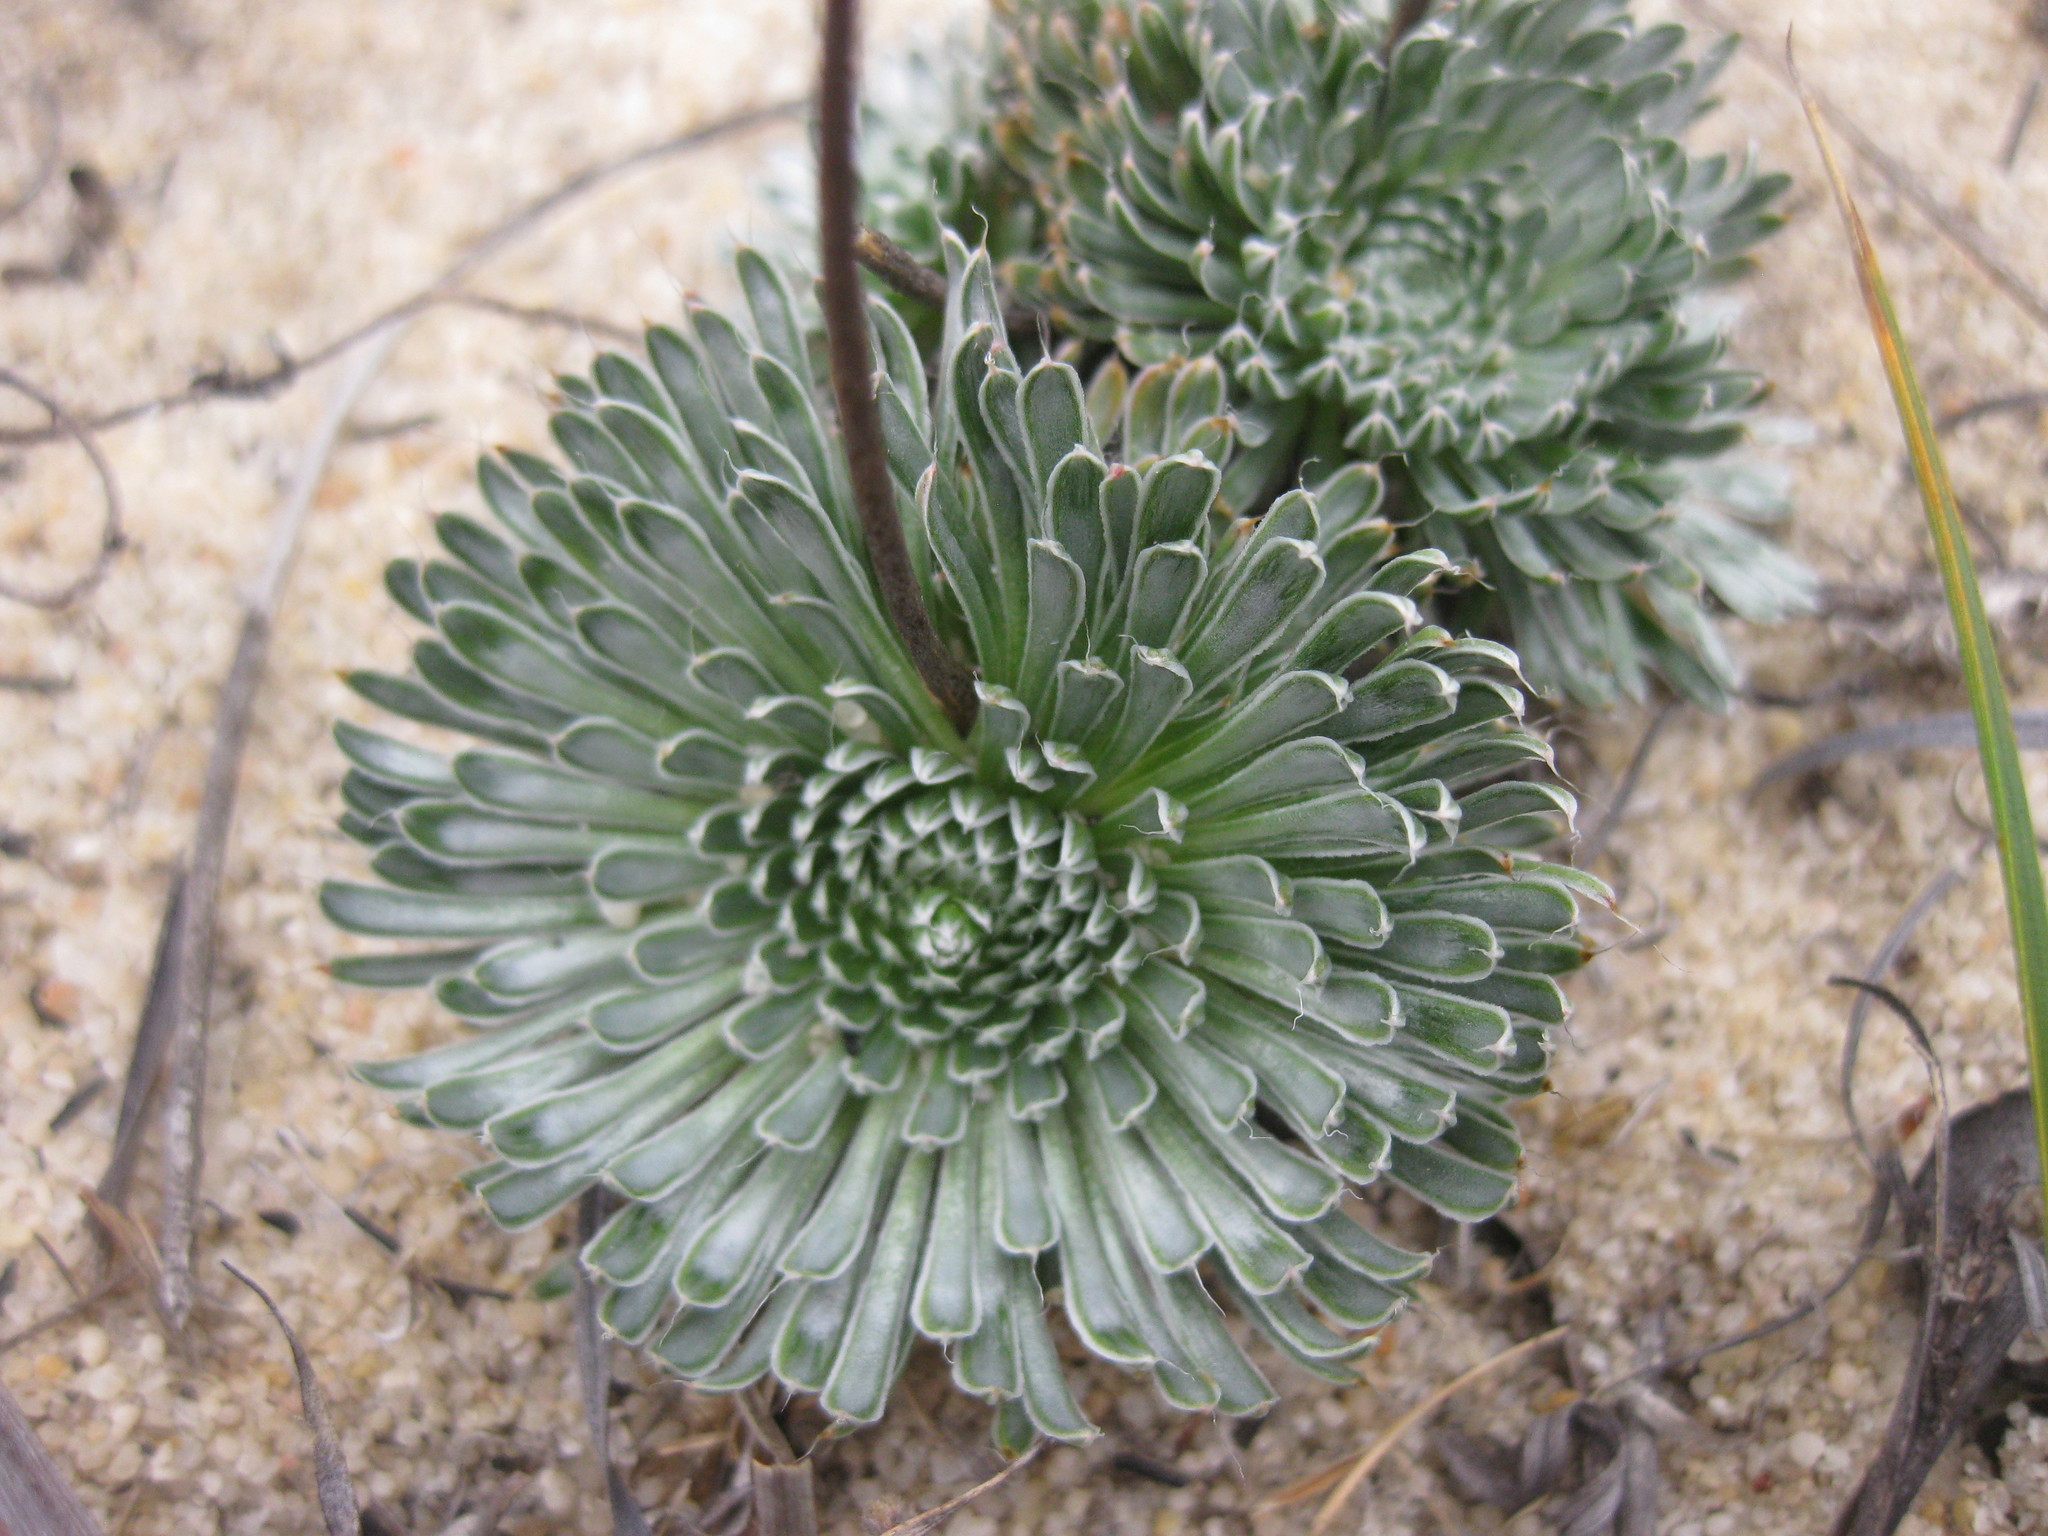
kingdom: Plantae
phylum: Tracheophyta
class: Magnoliopsida
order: Asterales
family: Stylidiaceae
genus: Stylidium
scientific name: Stylidium ponticulus
